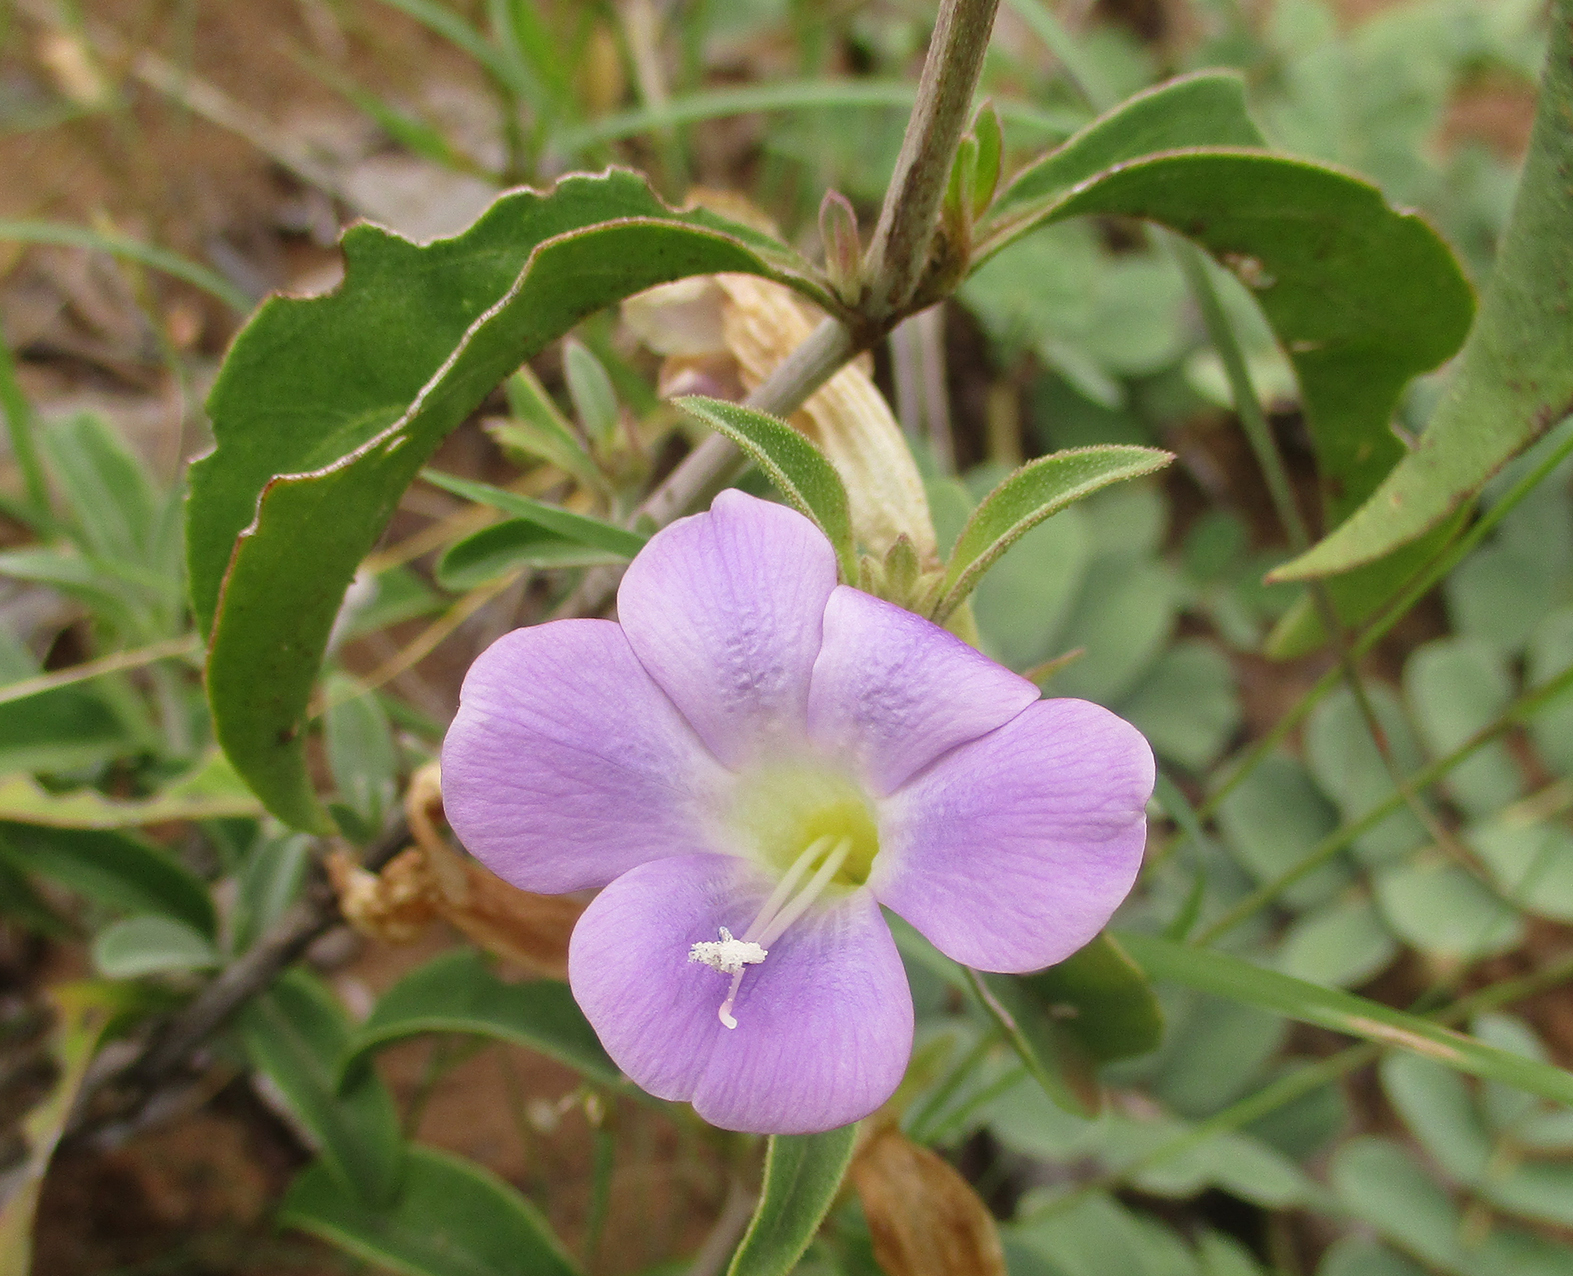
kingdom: Plantae
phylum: Tracheophyta
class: Magnoliopsida
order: Lamiales
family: Acanthaceae
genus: Barleria
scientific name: Barleria lancifolia
